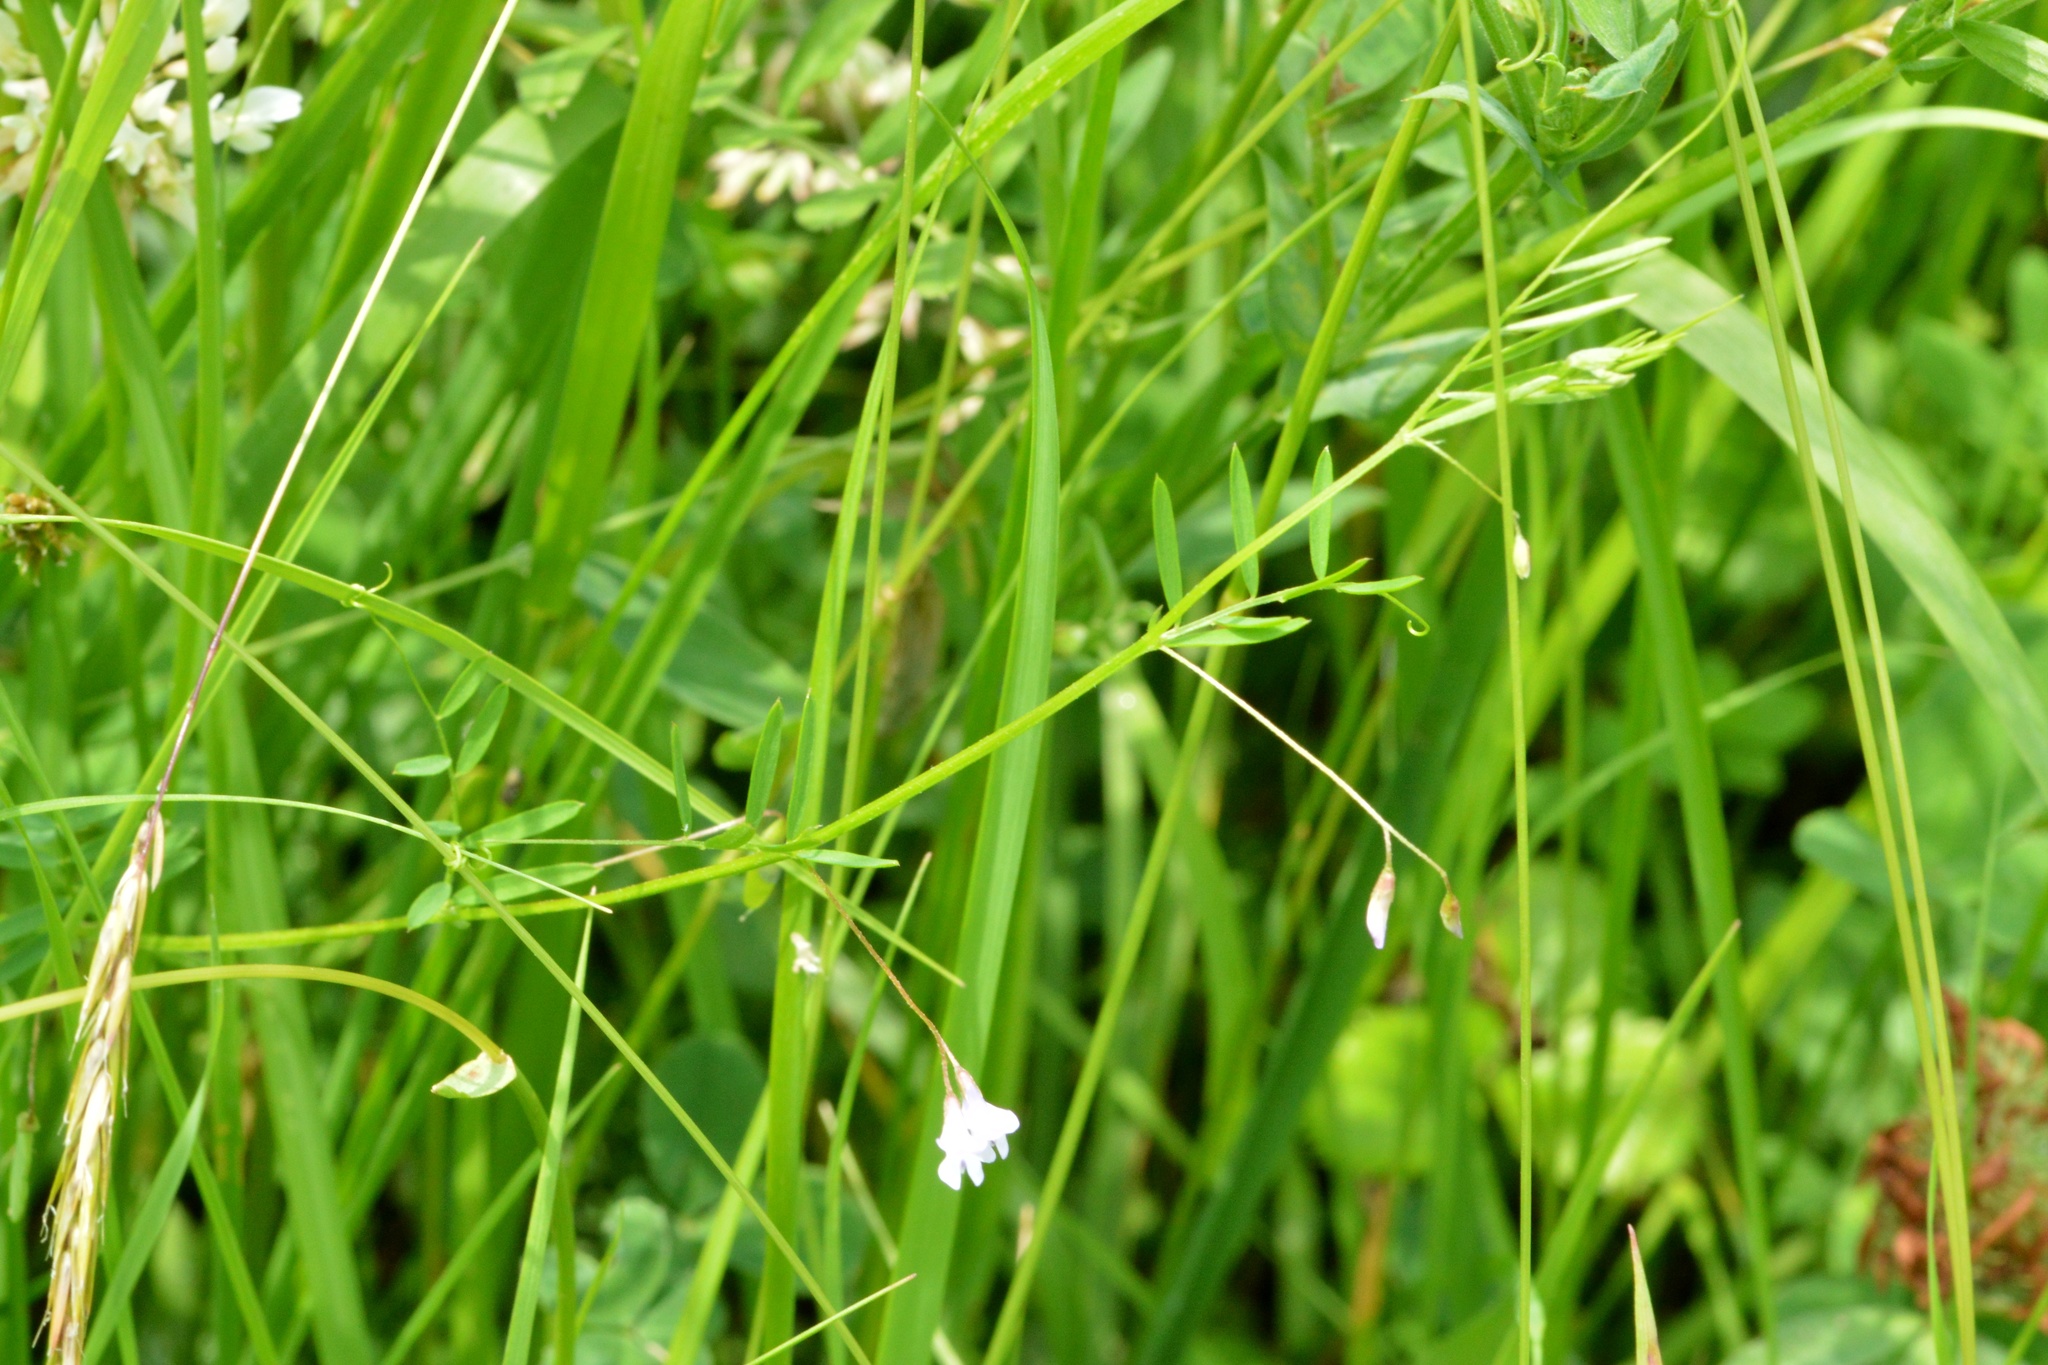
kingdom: Plantae
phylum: Tracheophyta
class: Magnoliopsida
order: Fabales
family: Fabaceae
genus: Vicia
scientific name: Vicia tetrasperma
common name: Smooth tare
